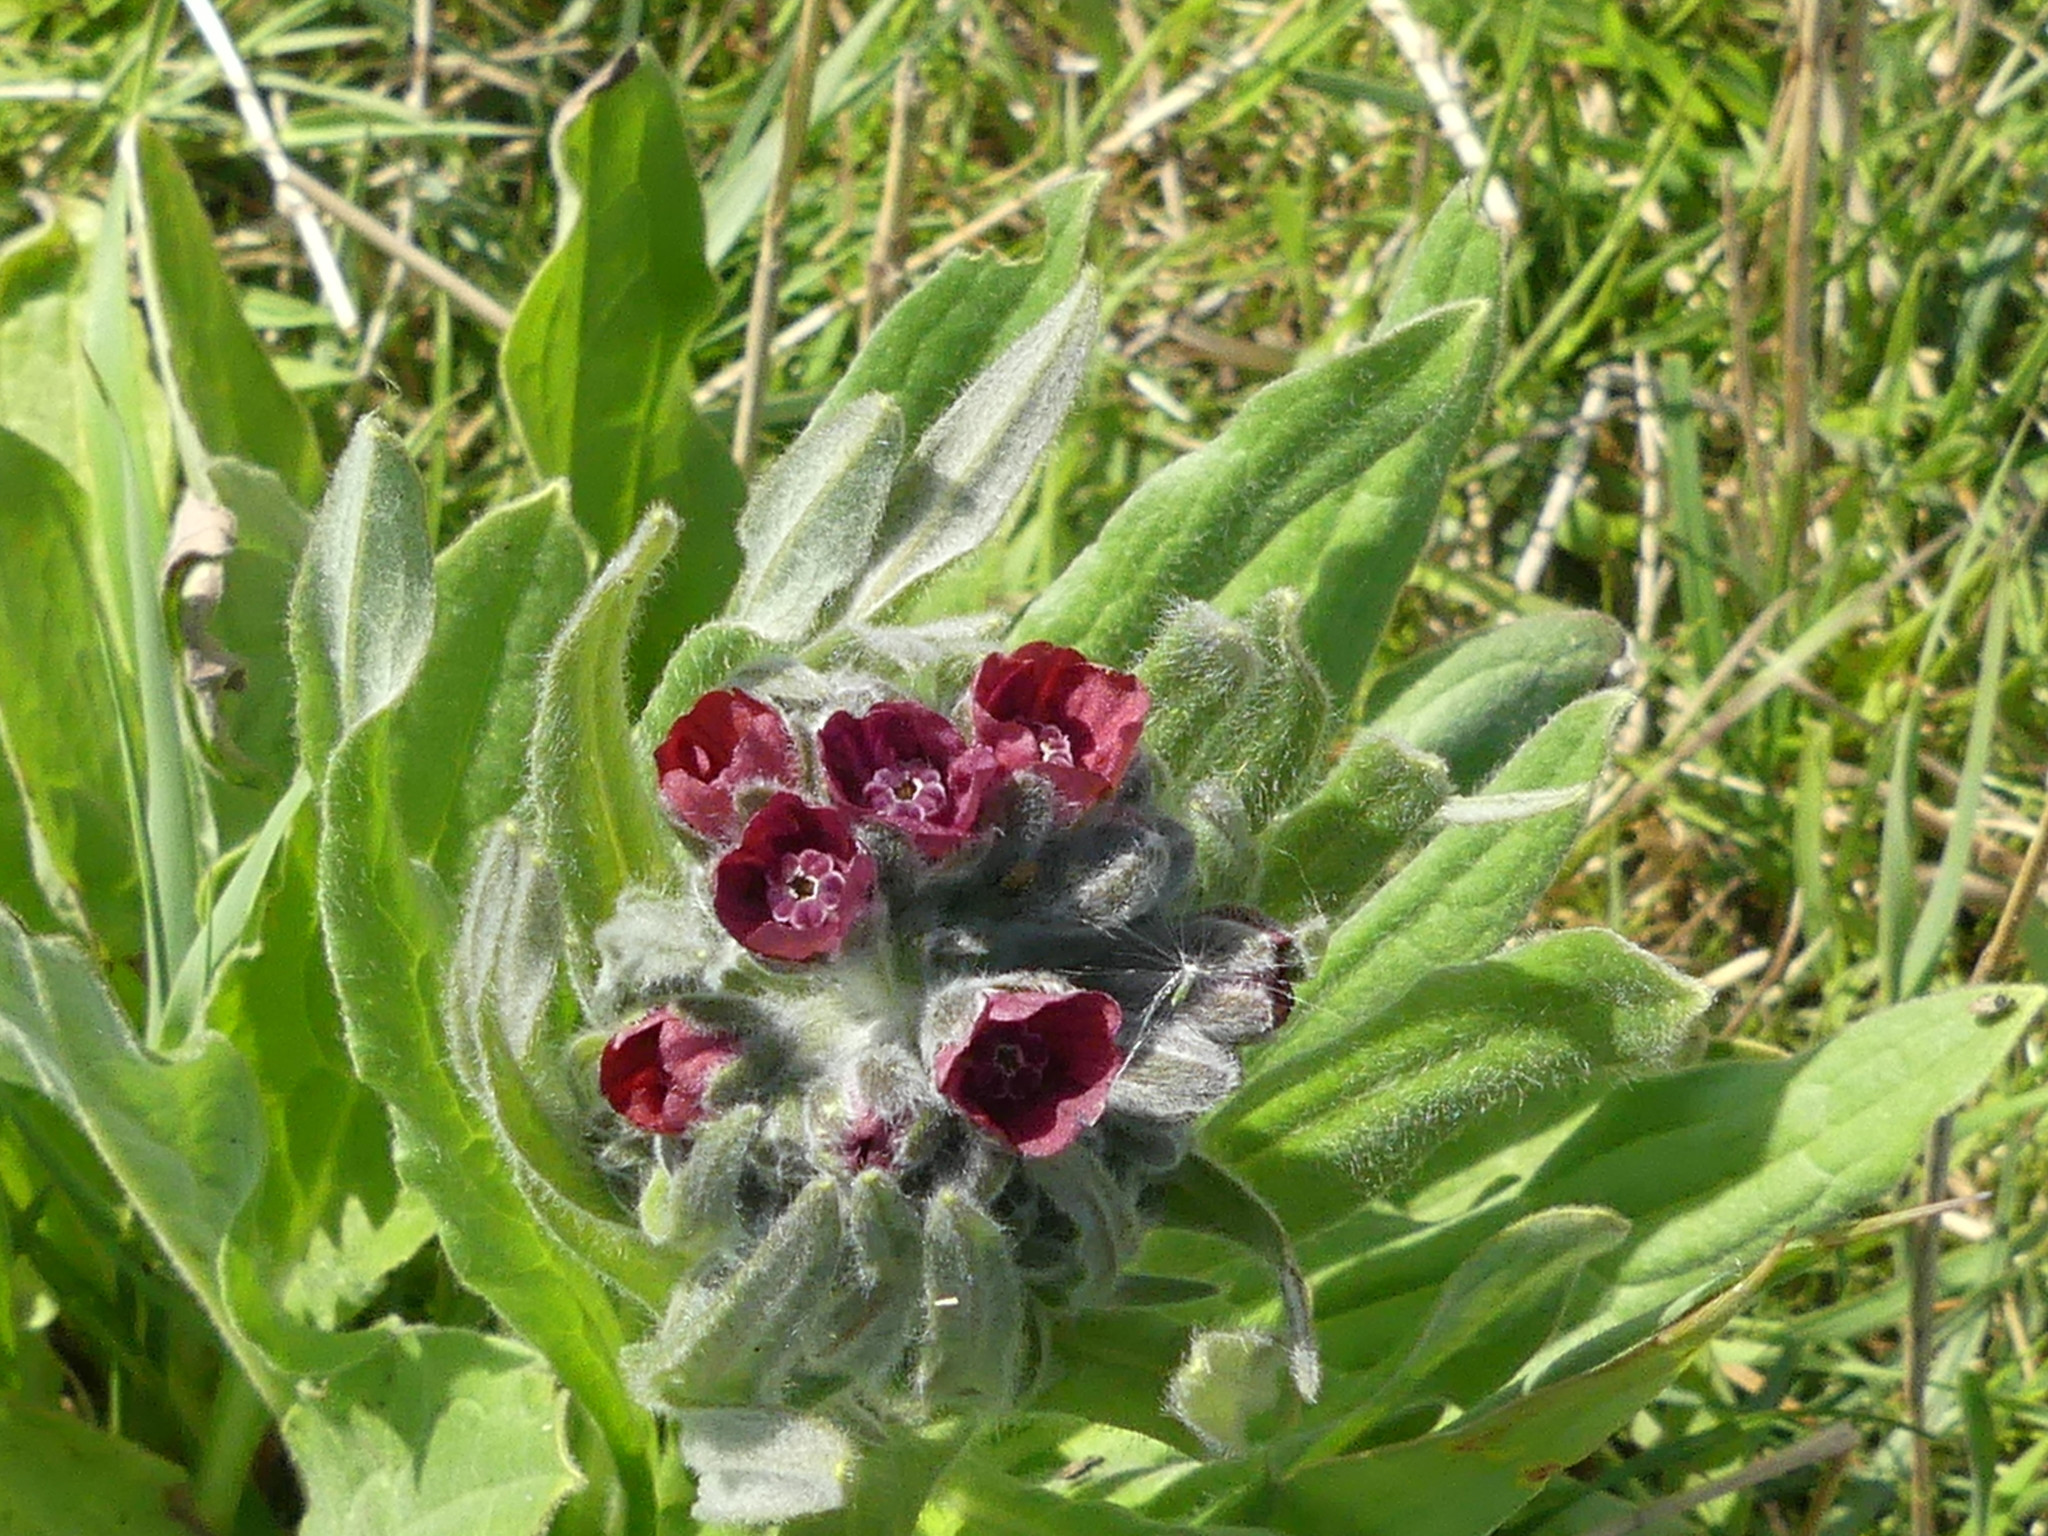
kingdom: Plantae
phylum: Tracheophyta
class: Magnoliopsida
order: Boraginales
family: Boraginaceae
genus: Cynoglossum
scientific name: Cynoglossum officinale
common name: Hound's-tongue
